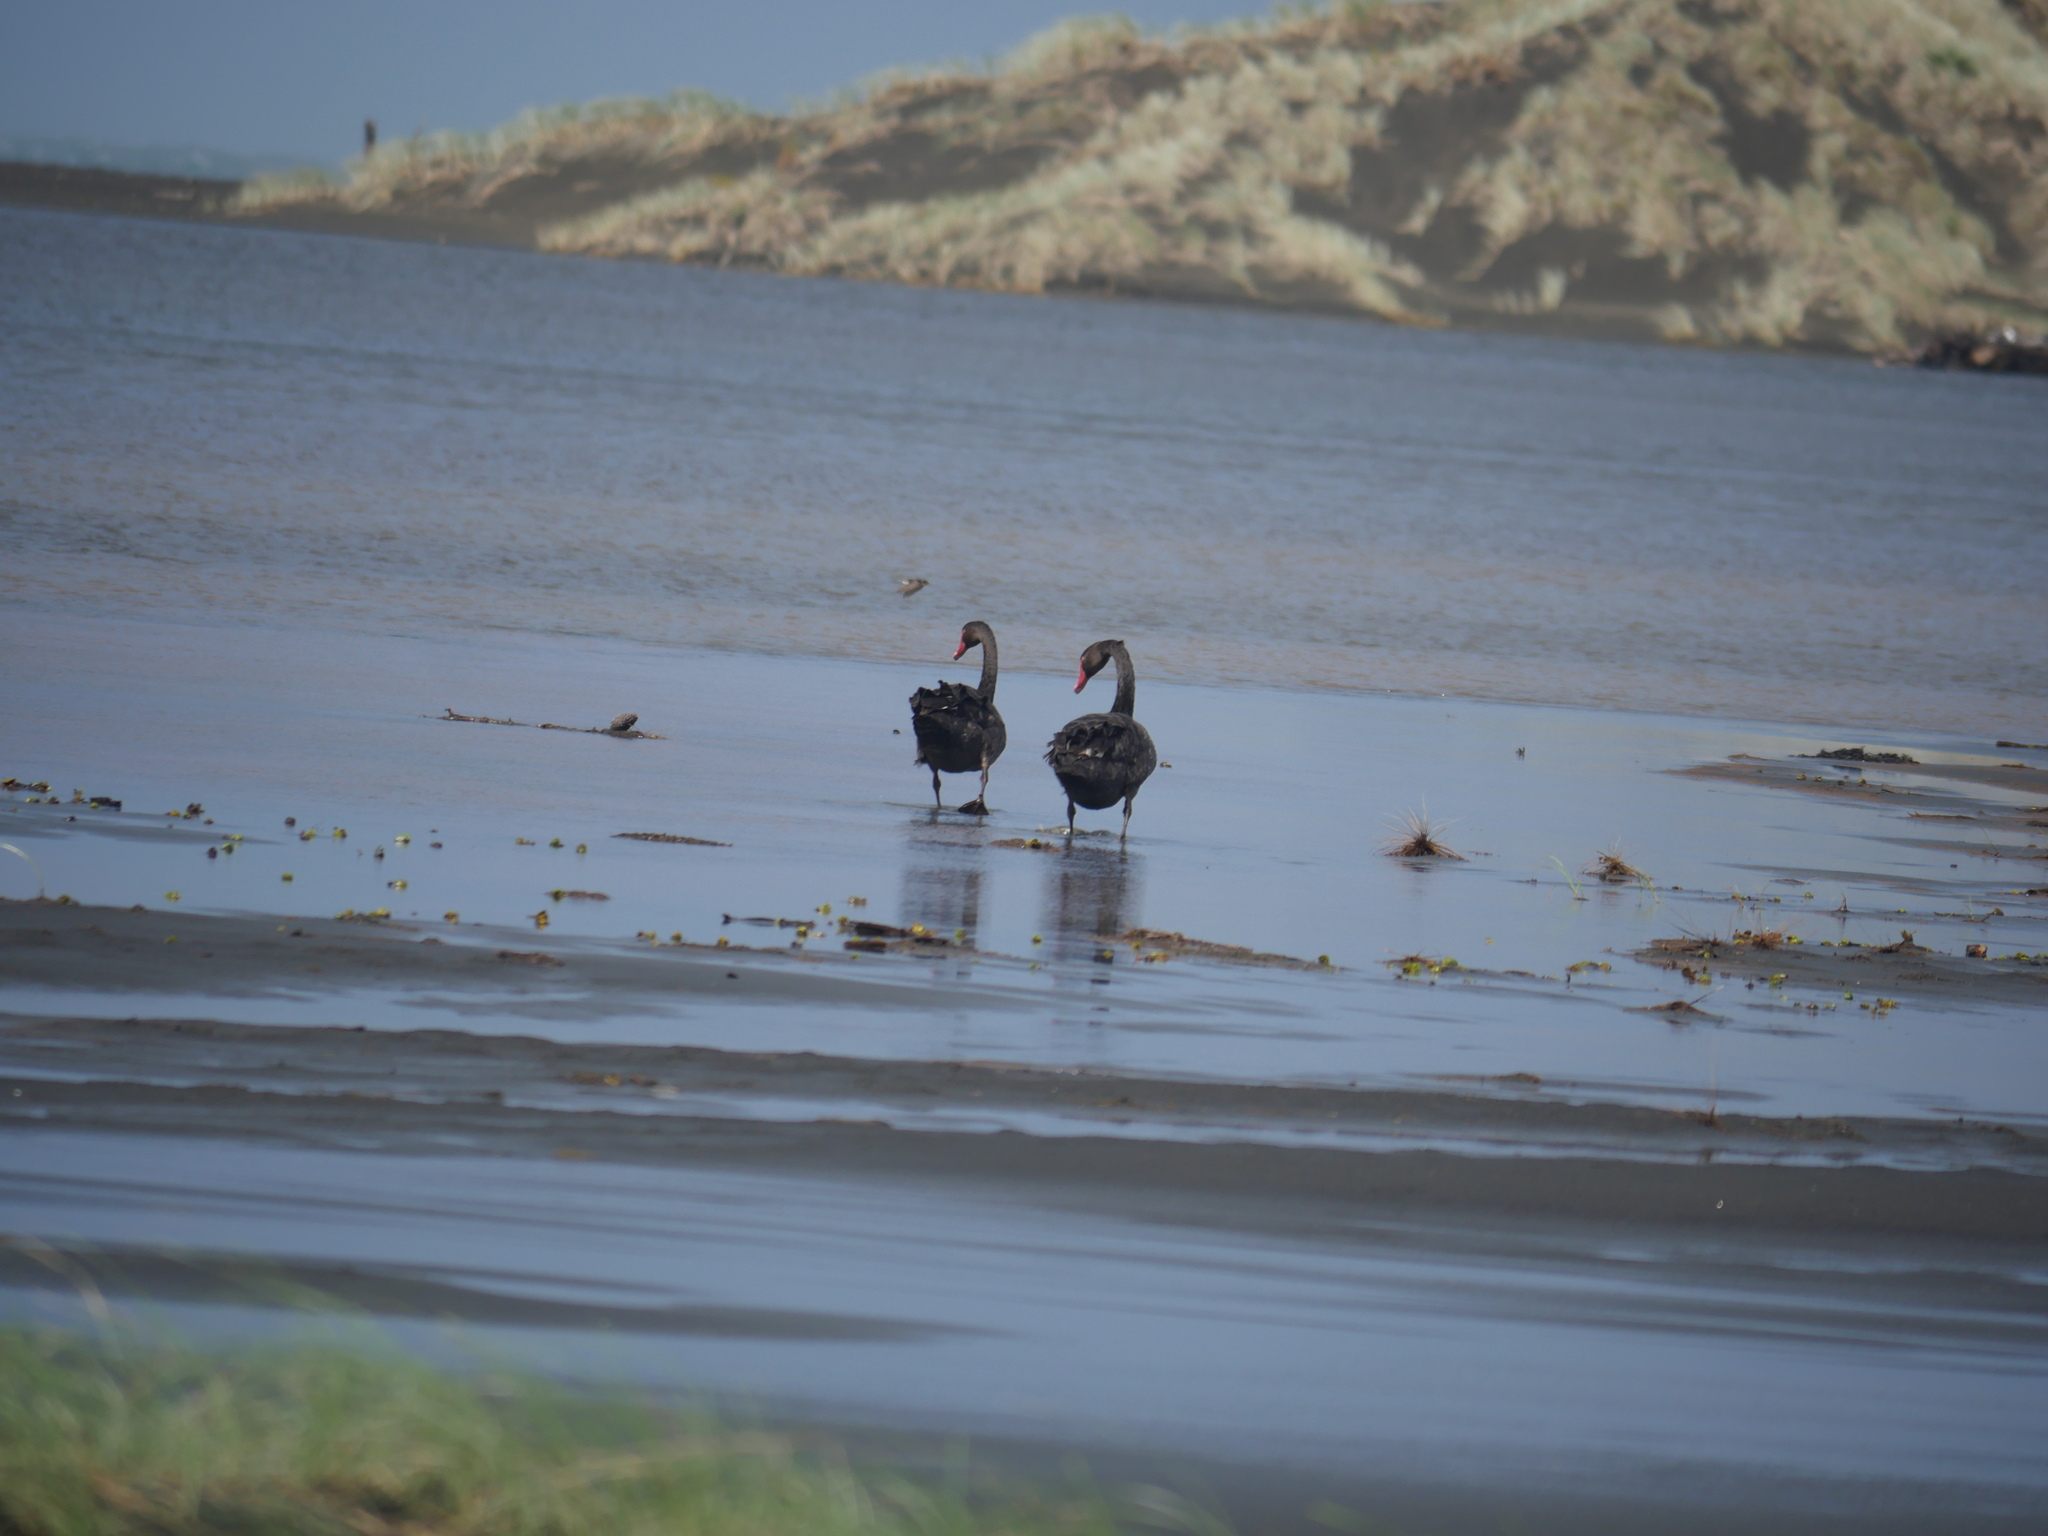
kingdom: Animalia
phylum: Chordata
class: Aves
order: Anseriformes
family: Anatidae
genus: Cygnus
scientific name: Cygnus atratus
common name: Black swan
